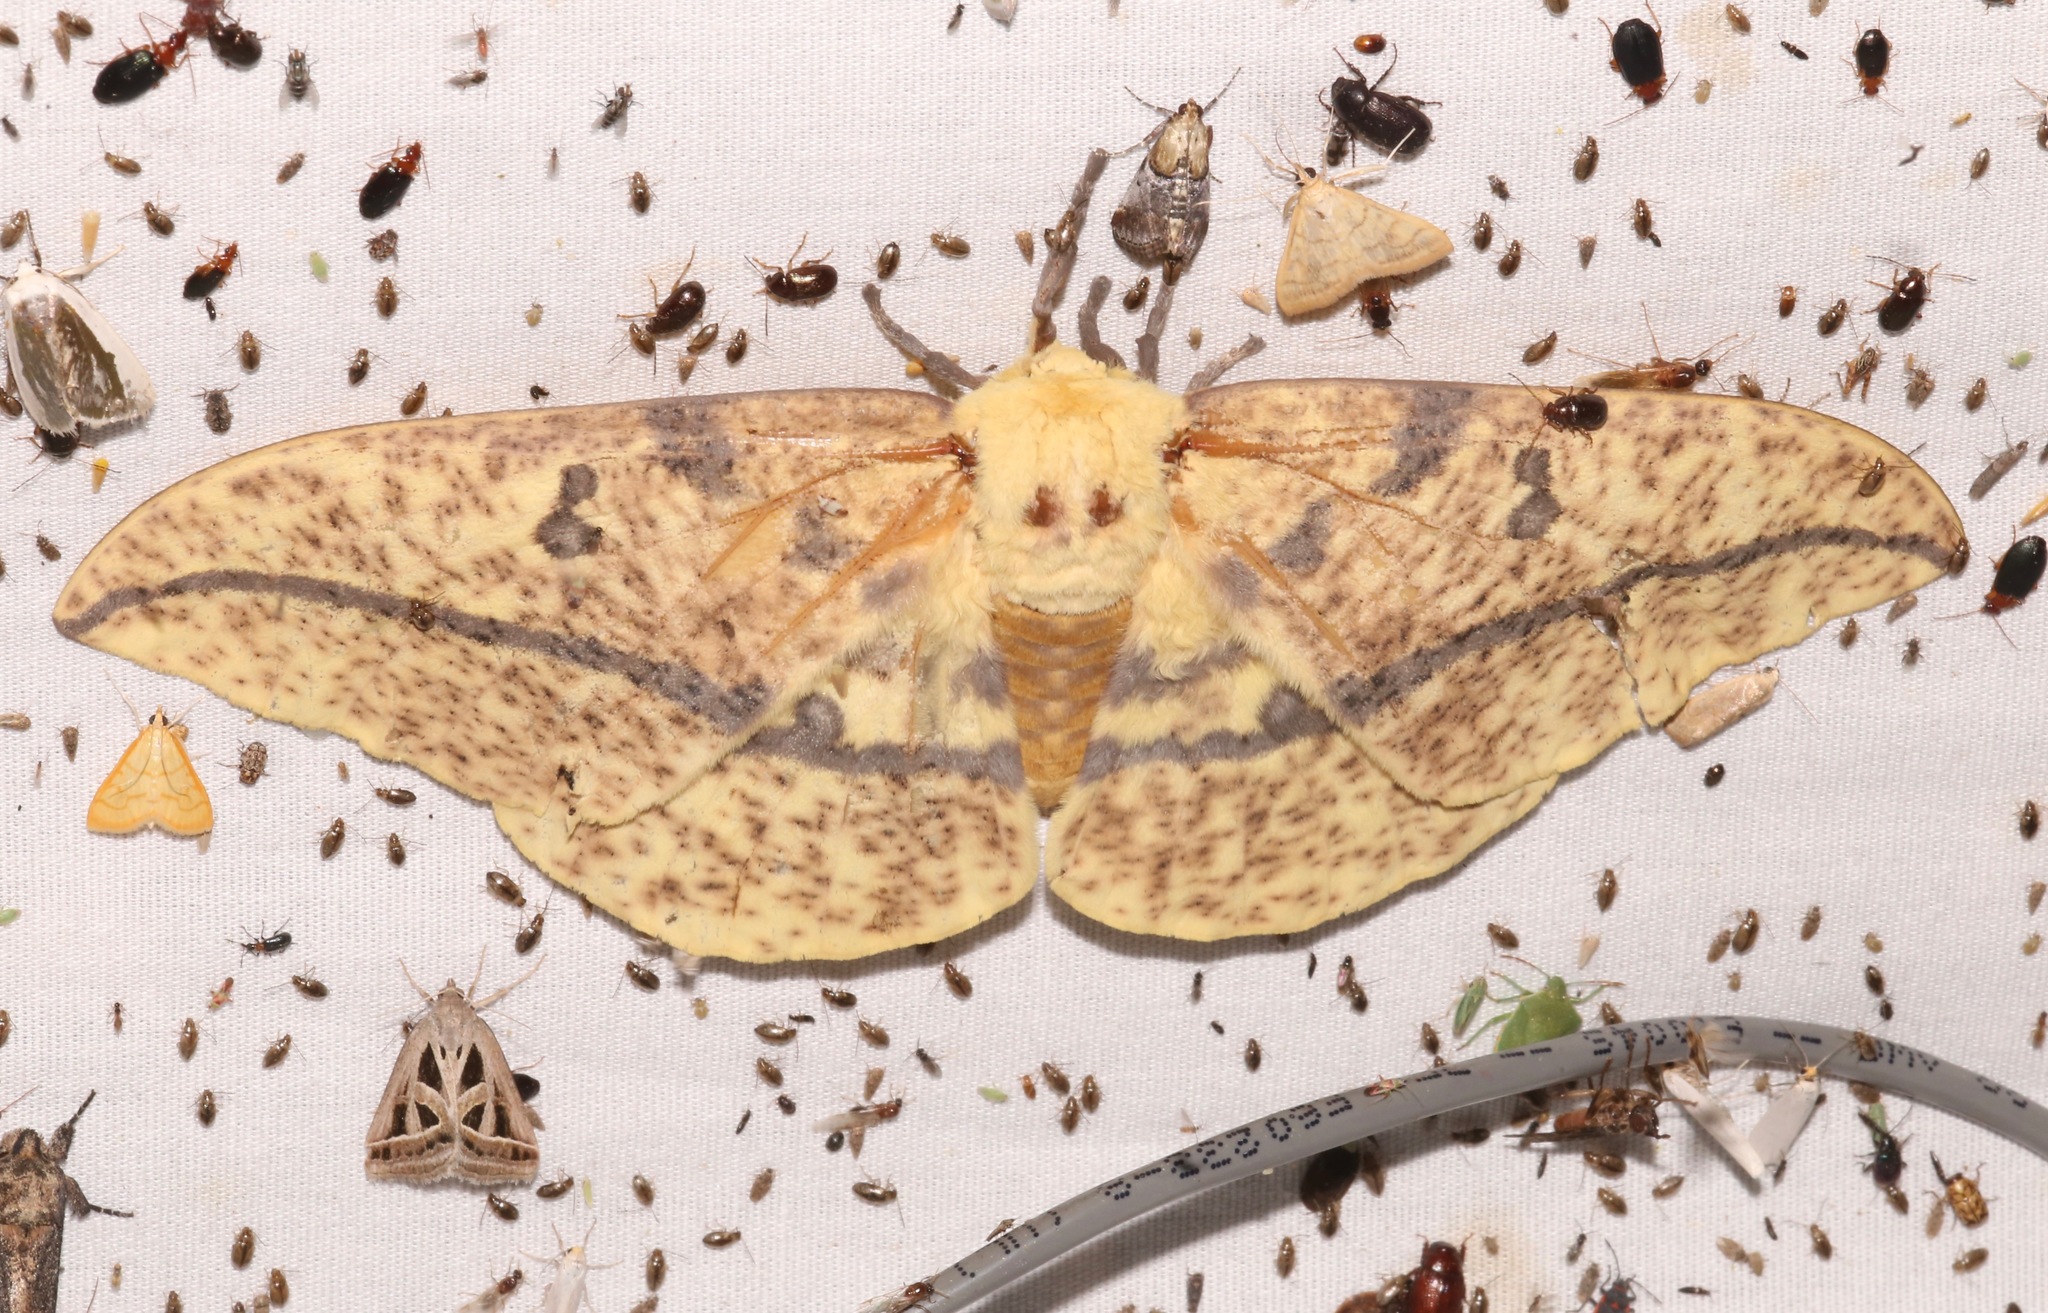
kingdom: Animalia
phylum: Arthropoda
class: Insecta
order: Lepidoptera
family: Saturniidae
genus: Eacles
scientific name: Eacles oslari
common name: Oslar's imperial moth
